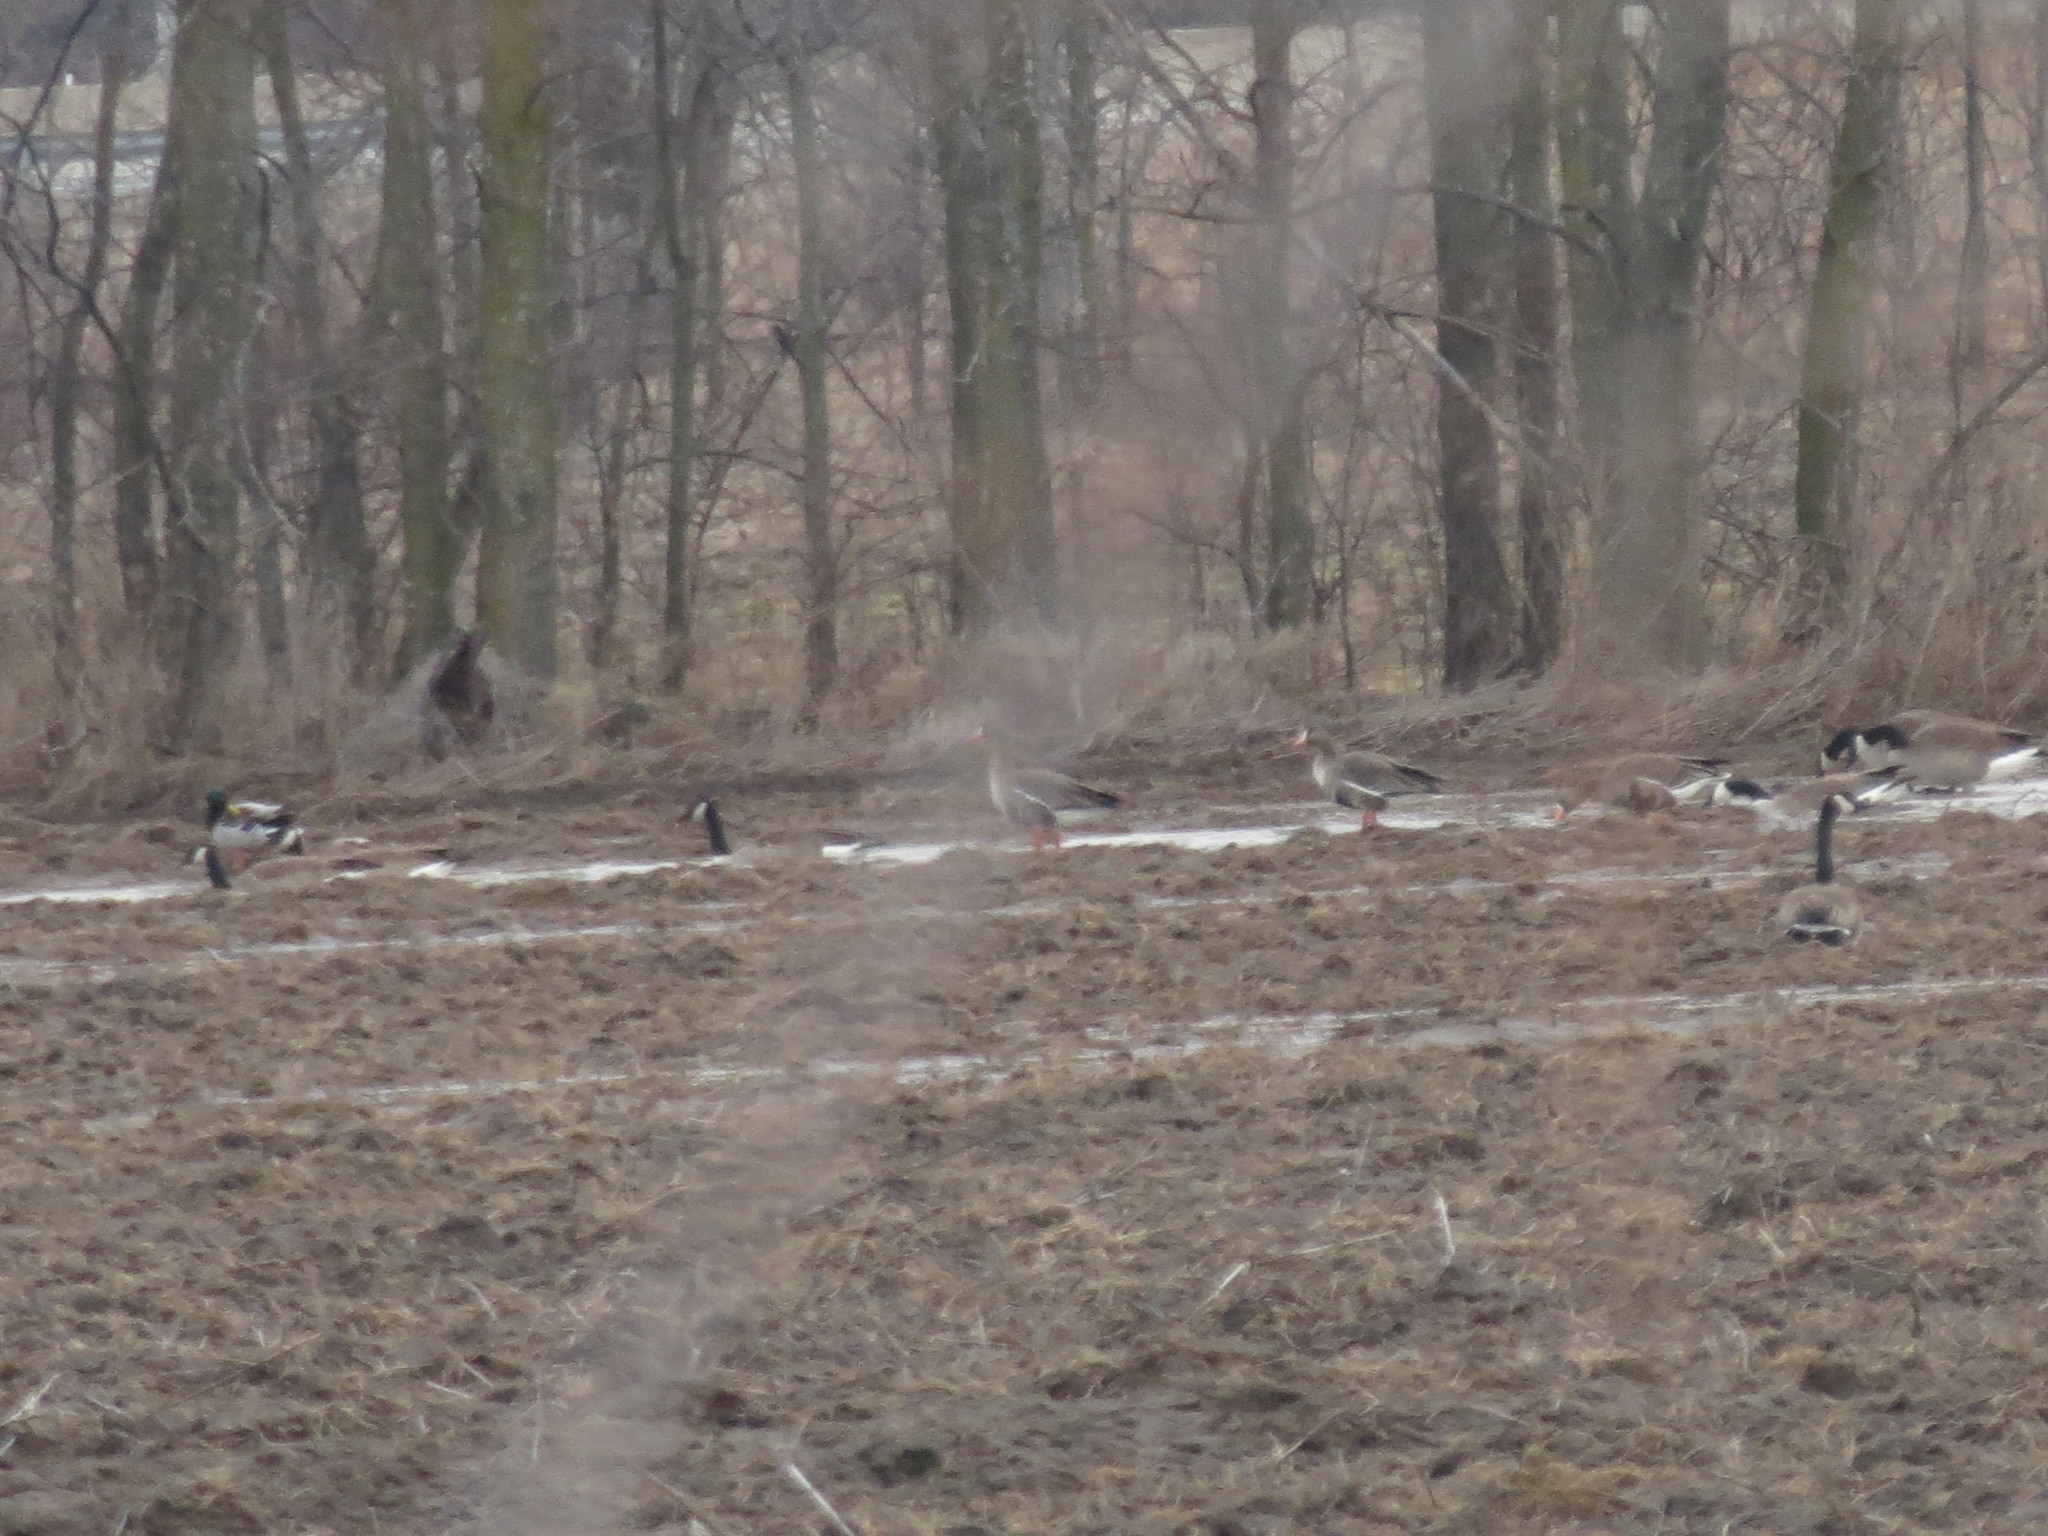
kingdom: Animalia
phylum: Chordata
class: Aves
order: Anseriformes
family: Anatidae
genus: Anser
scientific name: Anser albifrons
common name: Greater white-fronted goose
